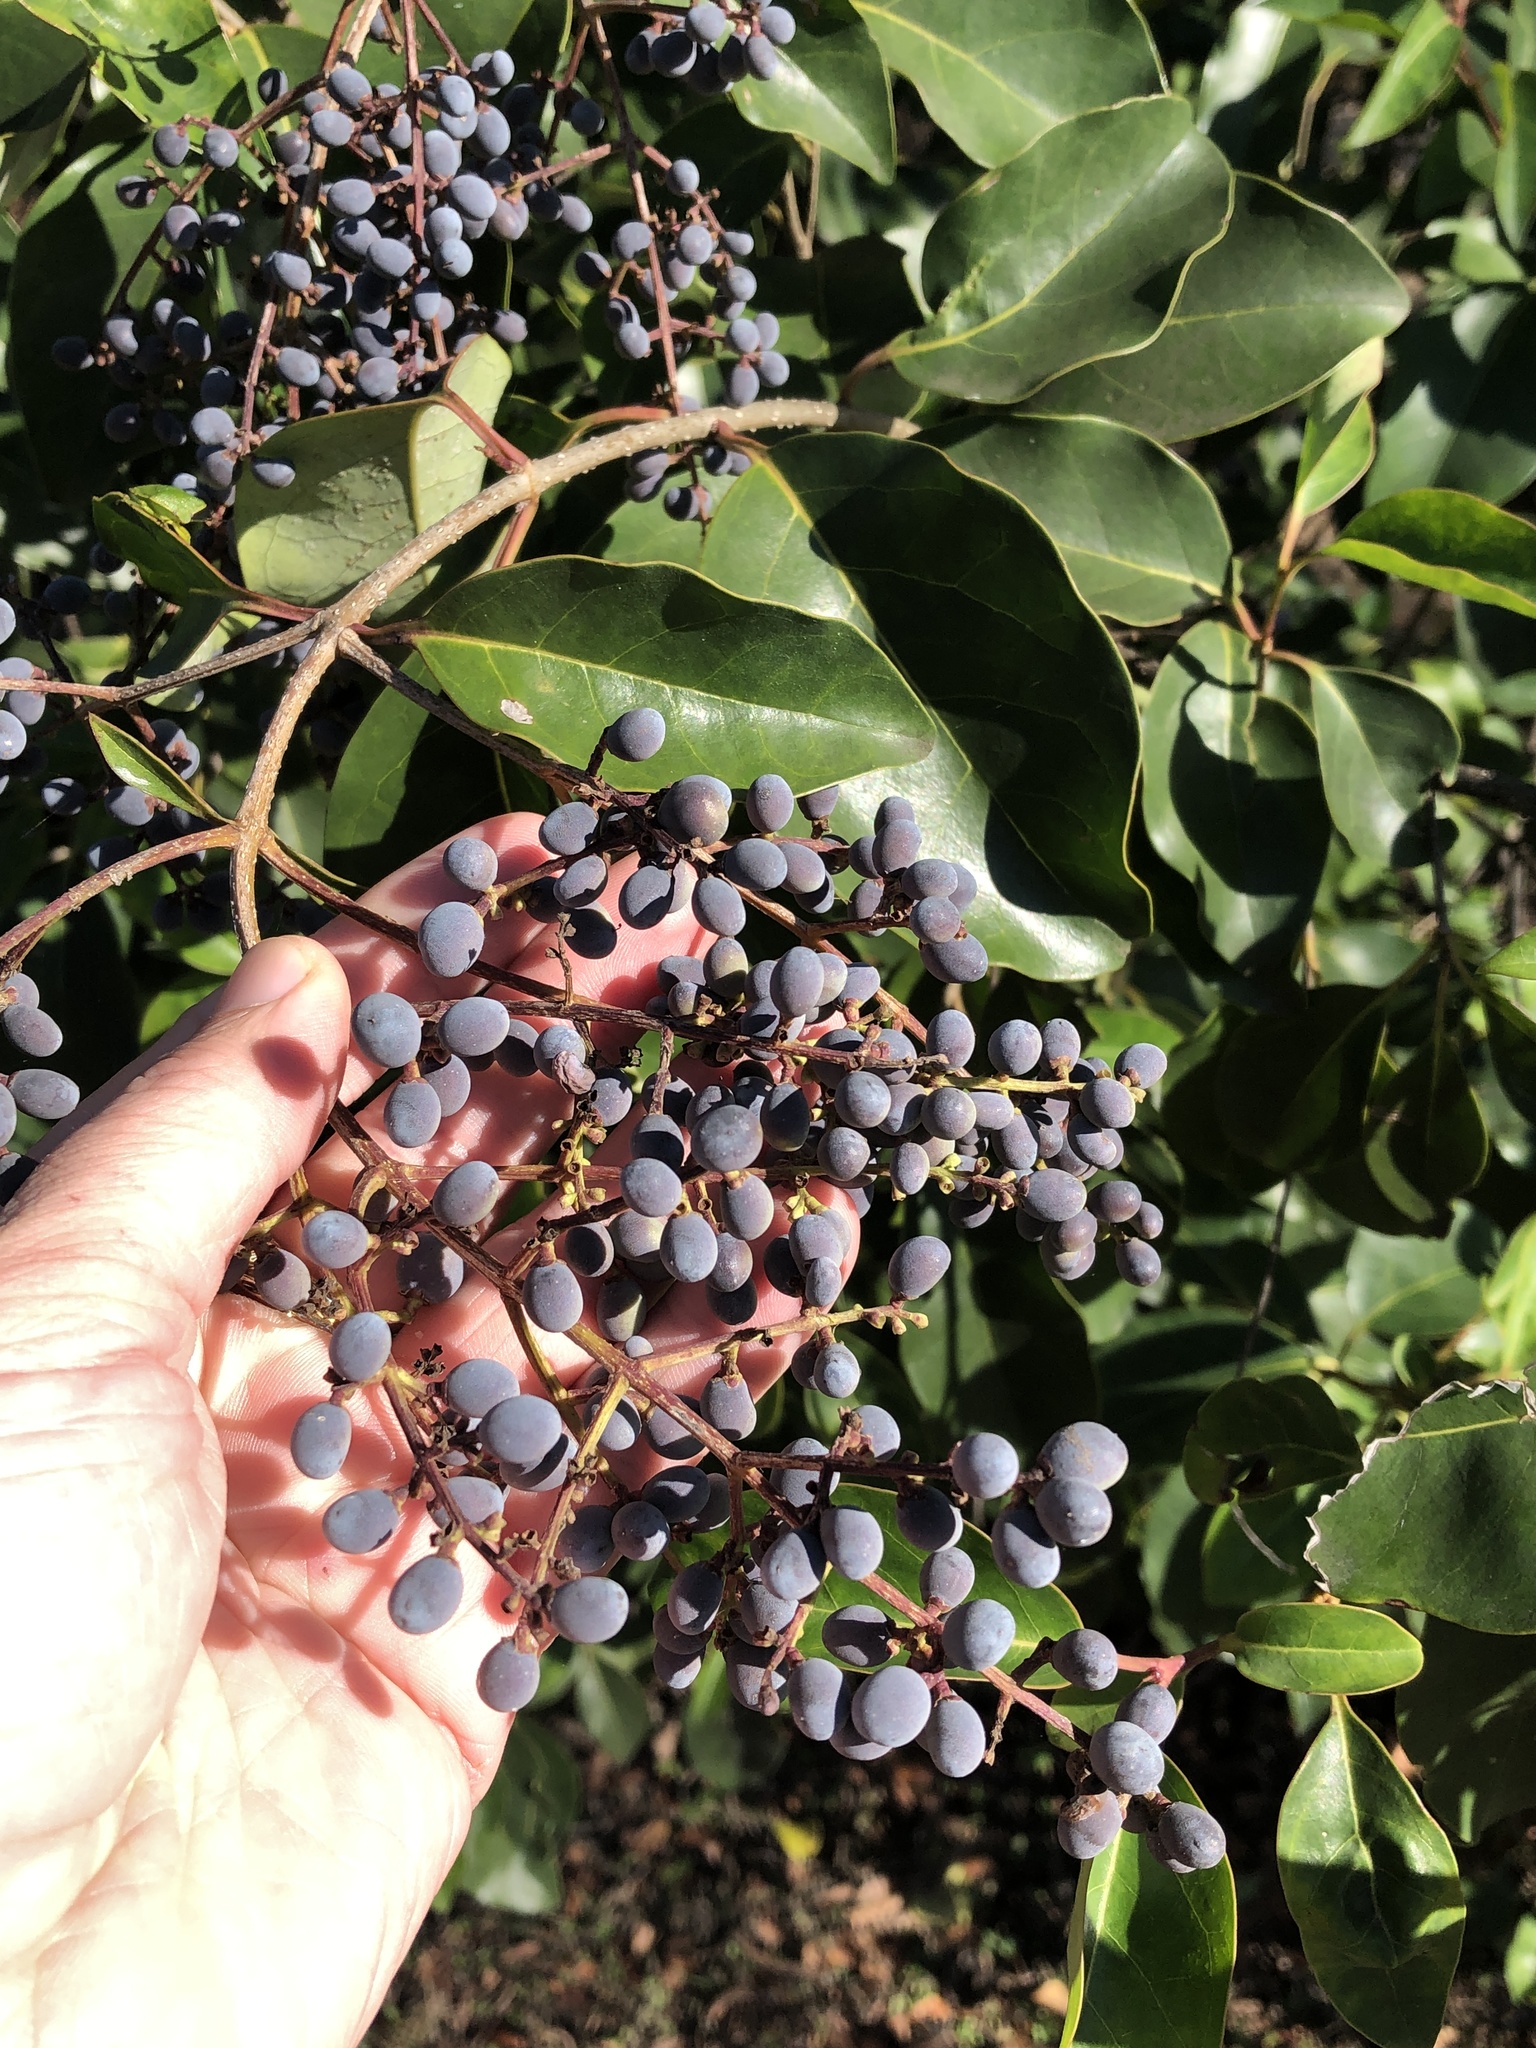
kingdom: Plantae
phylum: Tracheophyta
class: Magnoliopsida
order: Lamiales
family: Oleaceae
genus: Ligustrum
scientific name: Ligustrum lucidum
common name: Glossy privet
